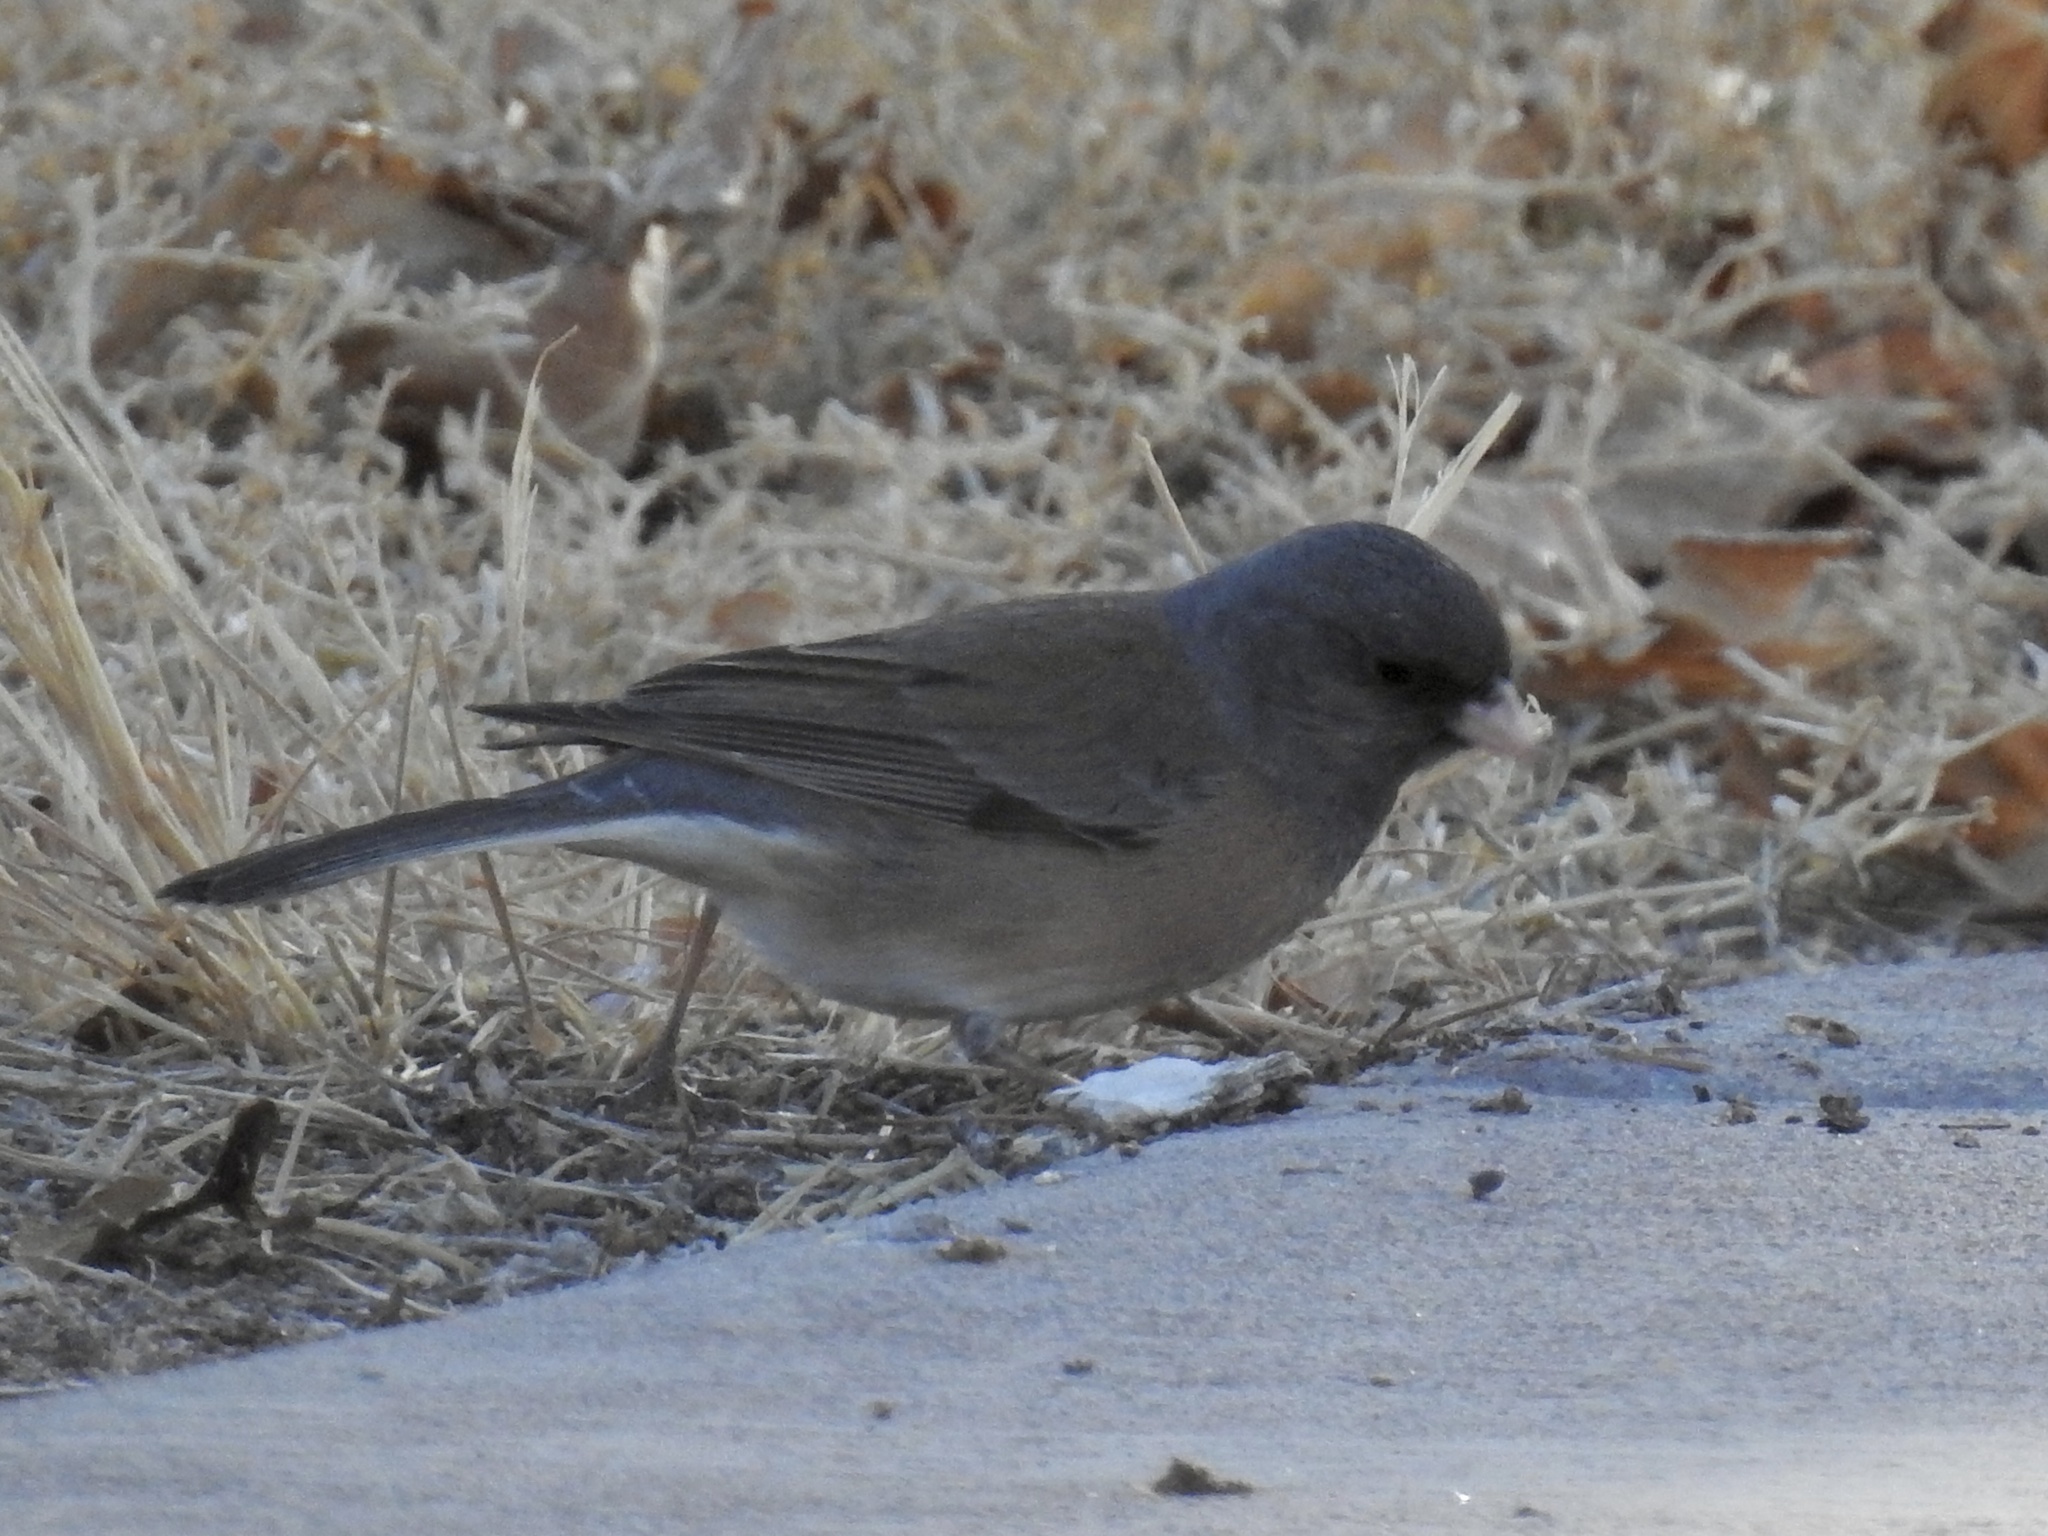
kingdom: Animalia
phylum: Chordata
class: Aves
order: Passeriformes
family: Passerellidae
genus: Junco
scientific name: Junco hyemalis
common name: Dark-eyed junco
